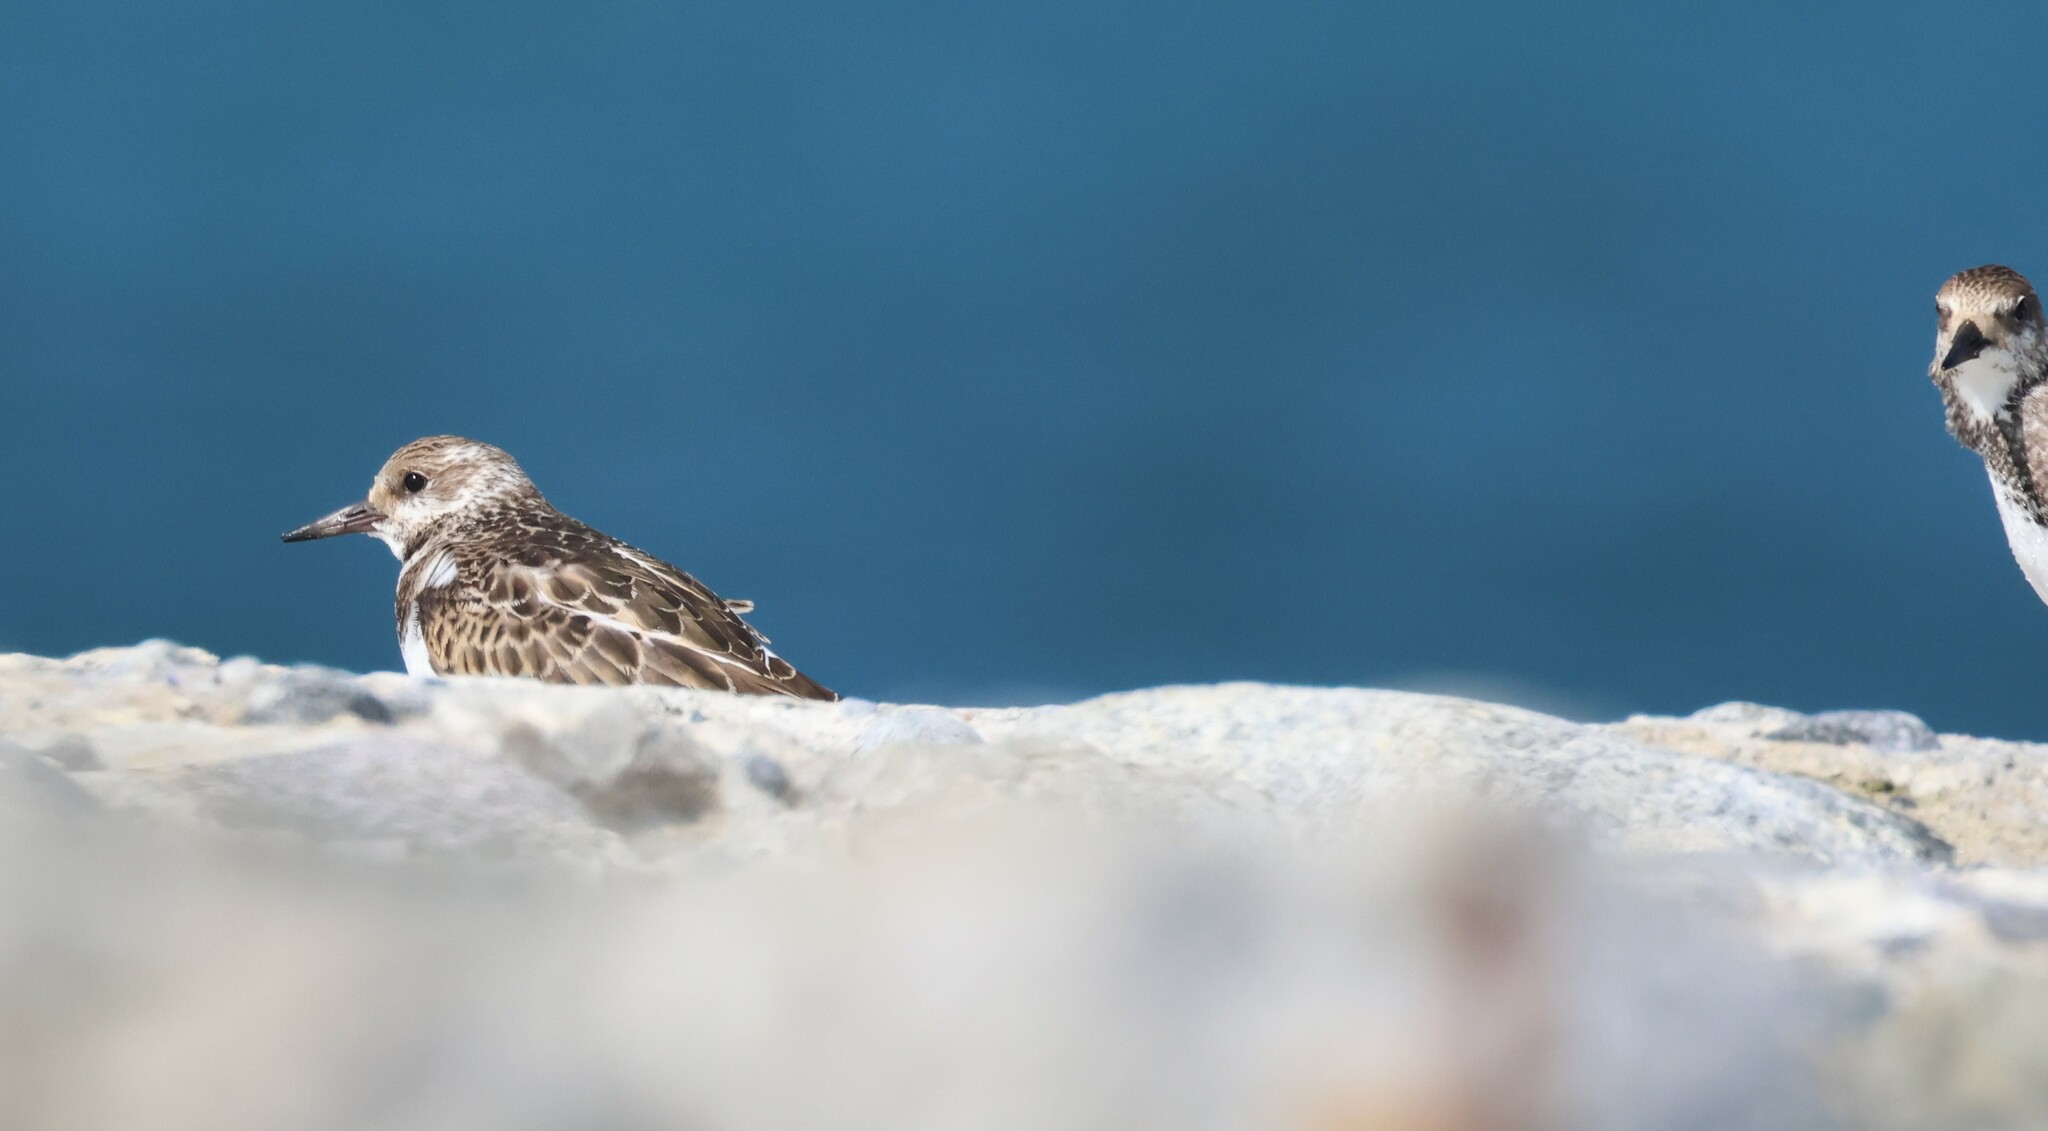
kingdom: Animalia
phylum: Chordata
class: Aves
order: Charadriiformes
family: Scolopacidae
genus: Arenaria
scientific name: Arenaria interpres
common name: Ruddy turnstone
